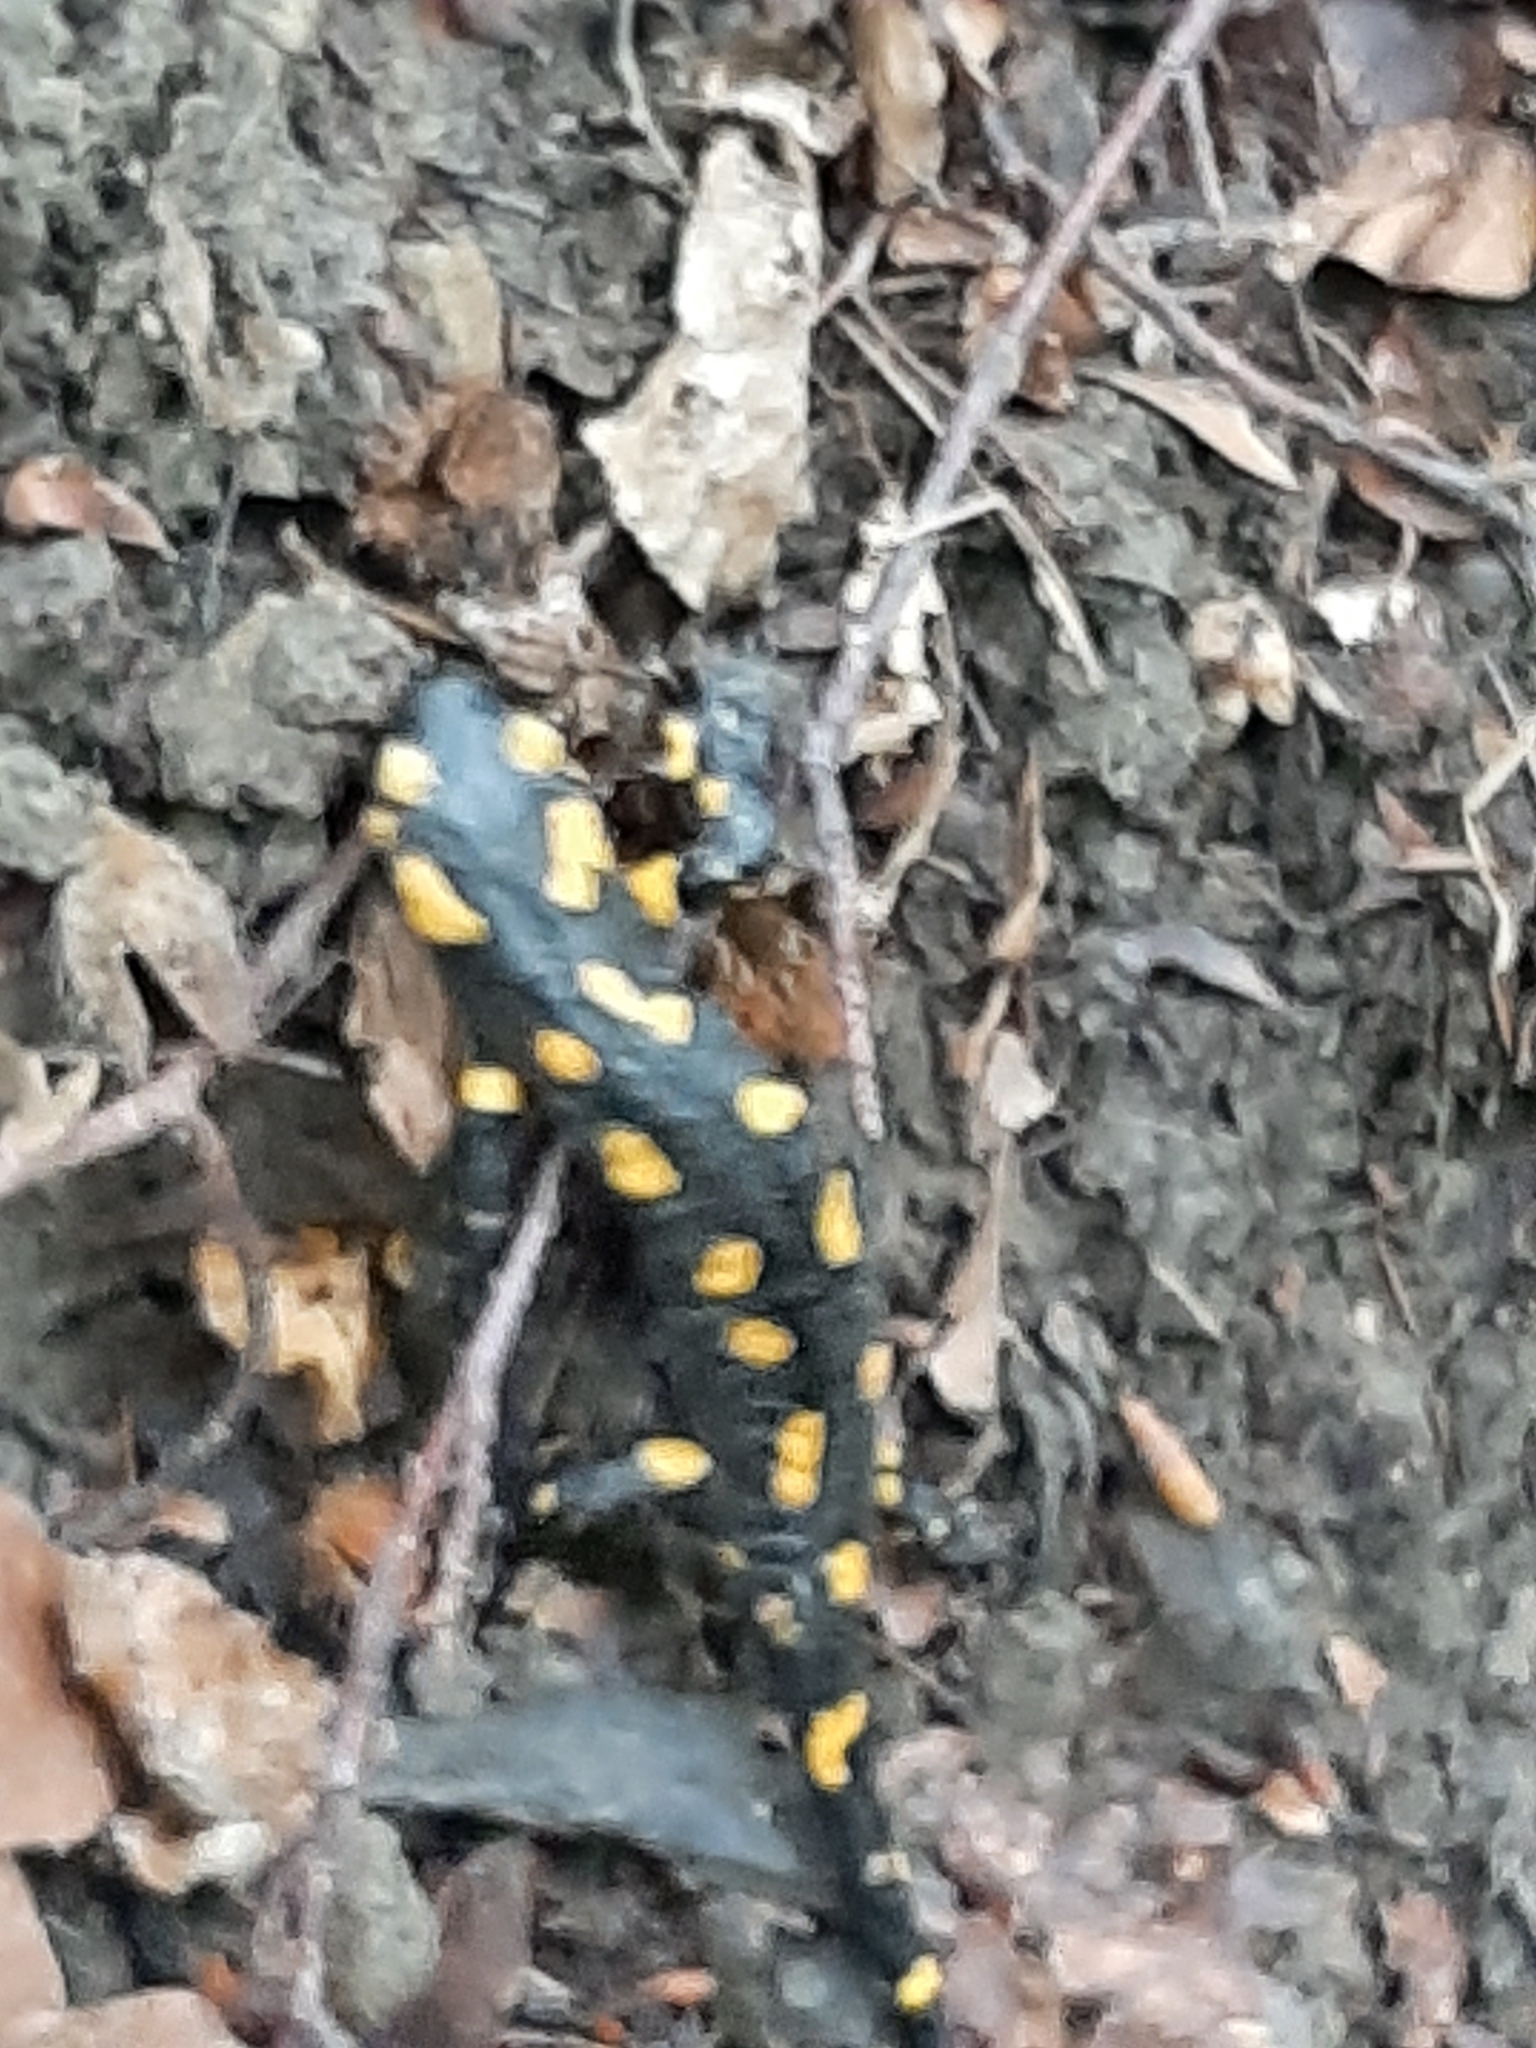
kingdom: Animalia
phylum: Chordata
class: Amphibia
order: Caudata
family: Salamandridae
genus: Salamandra
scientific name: Salamandra salamandra
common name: Fire salamander
